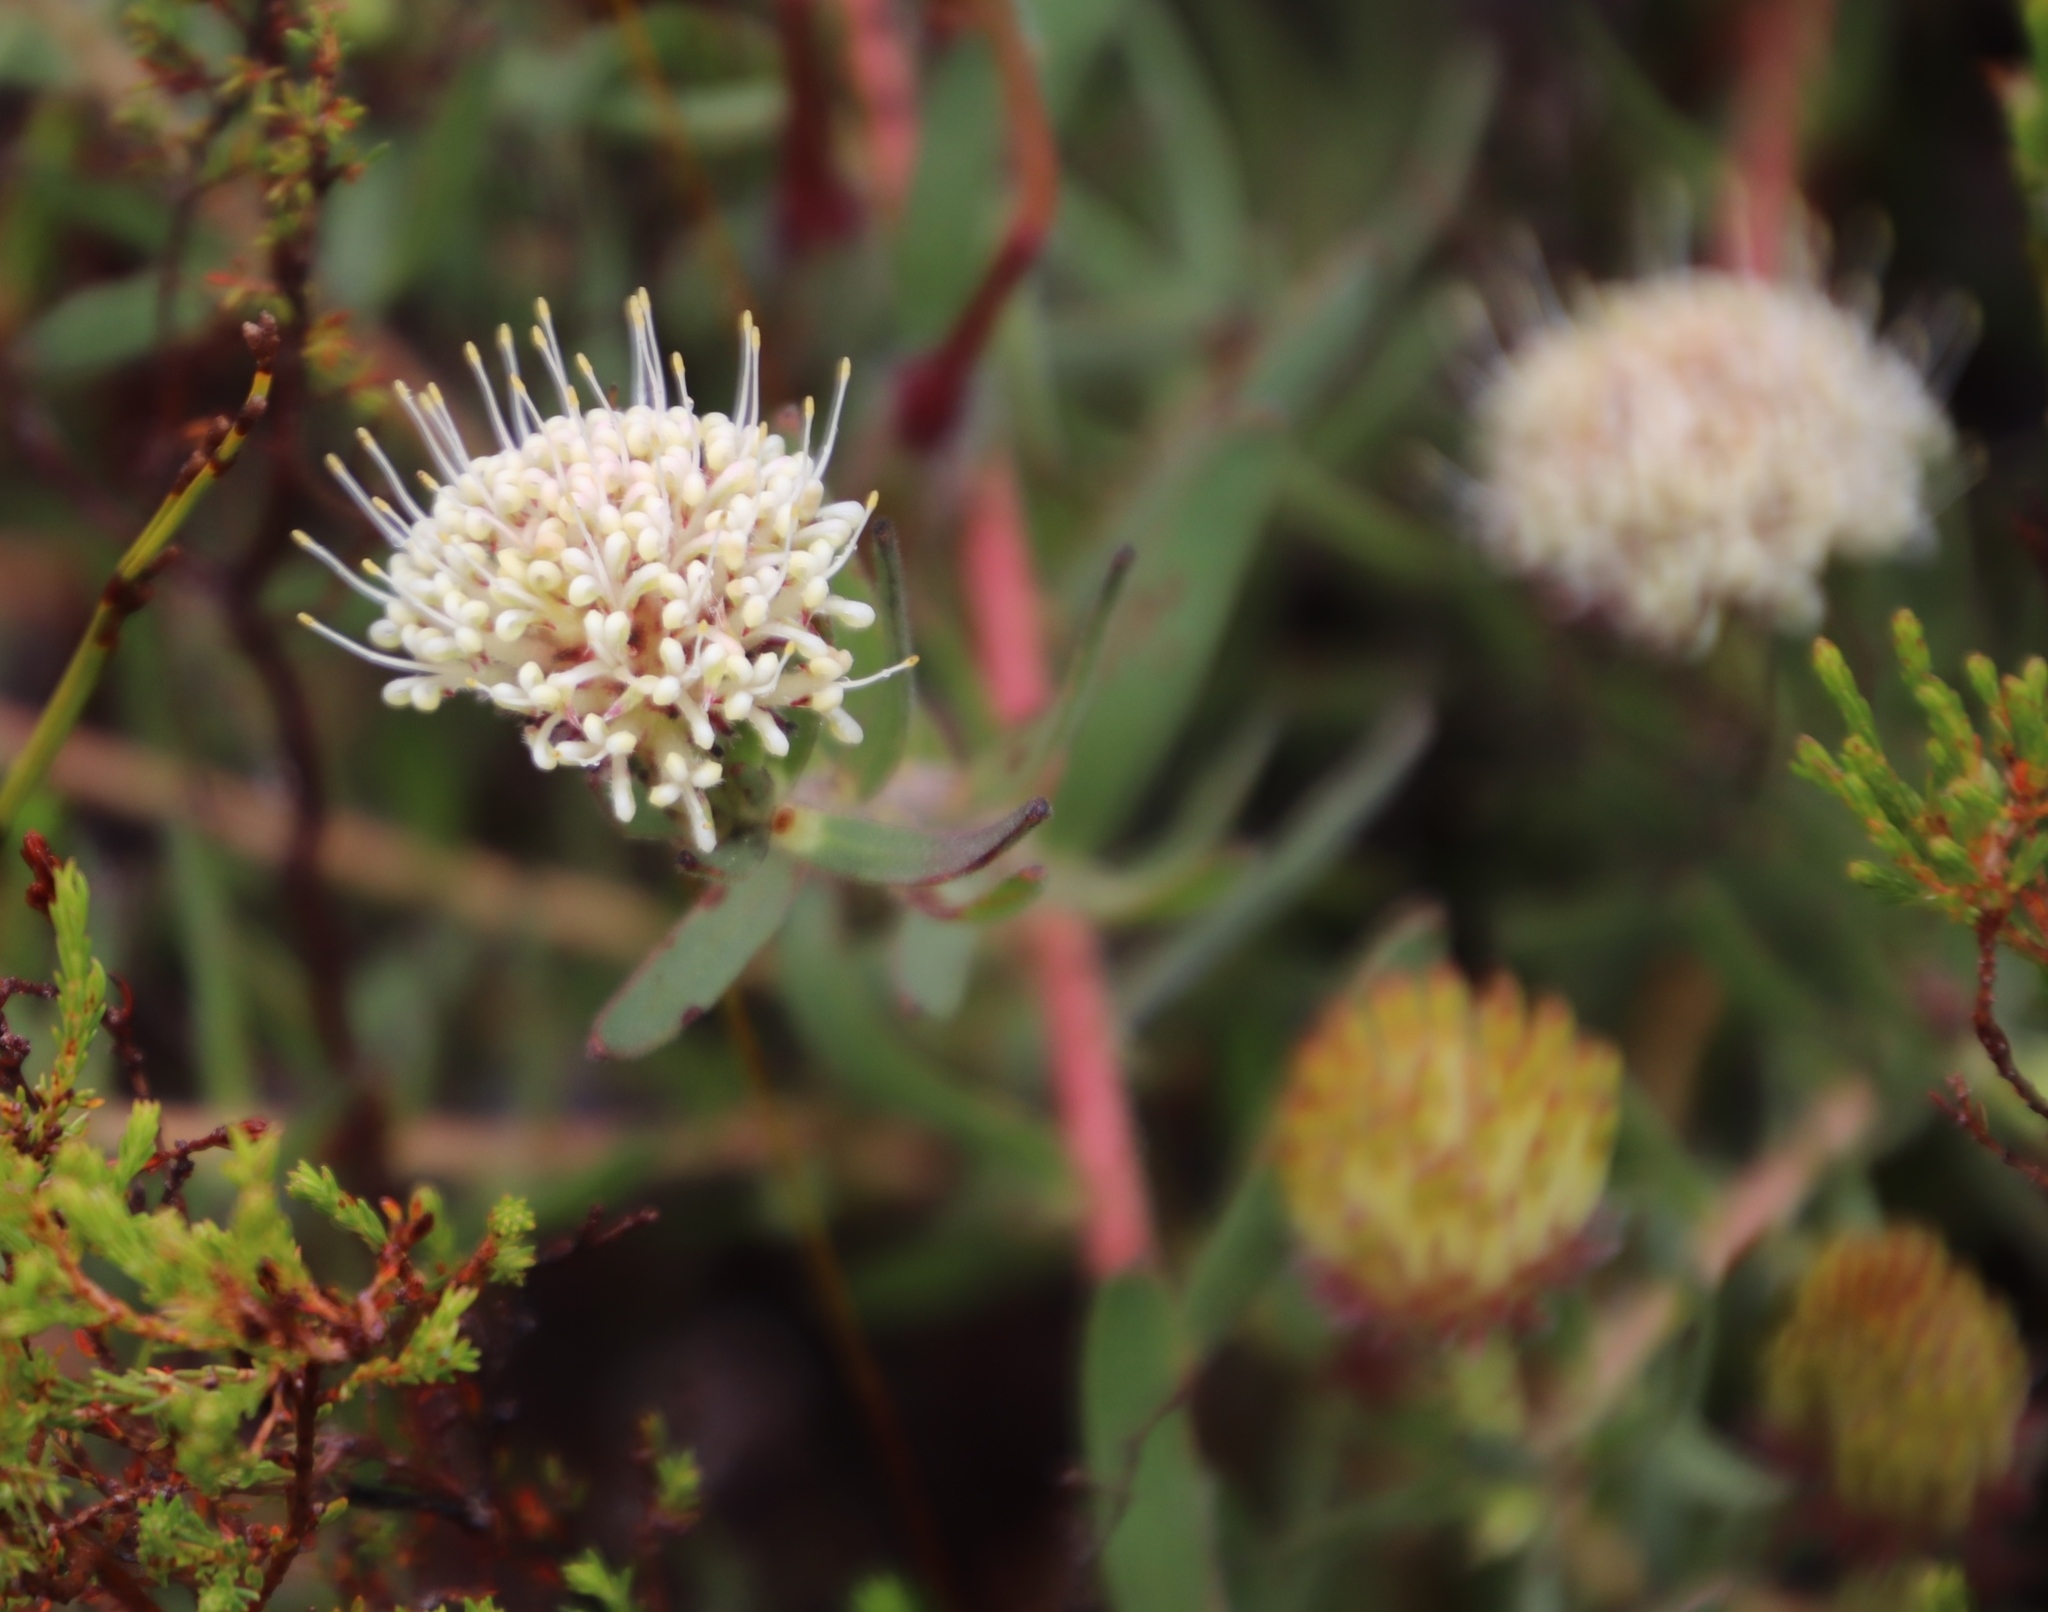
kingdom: Plantae
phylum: Tracheophyta
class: Magnoliopsida
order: Proteales
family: Proteaceae
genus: Leucospermum
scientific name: Leucospermum pedunculatum
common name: White-trailing pincushion
